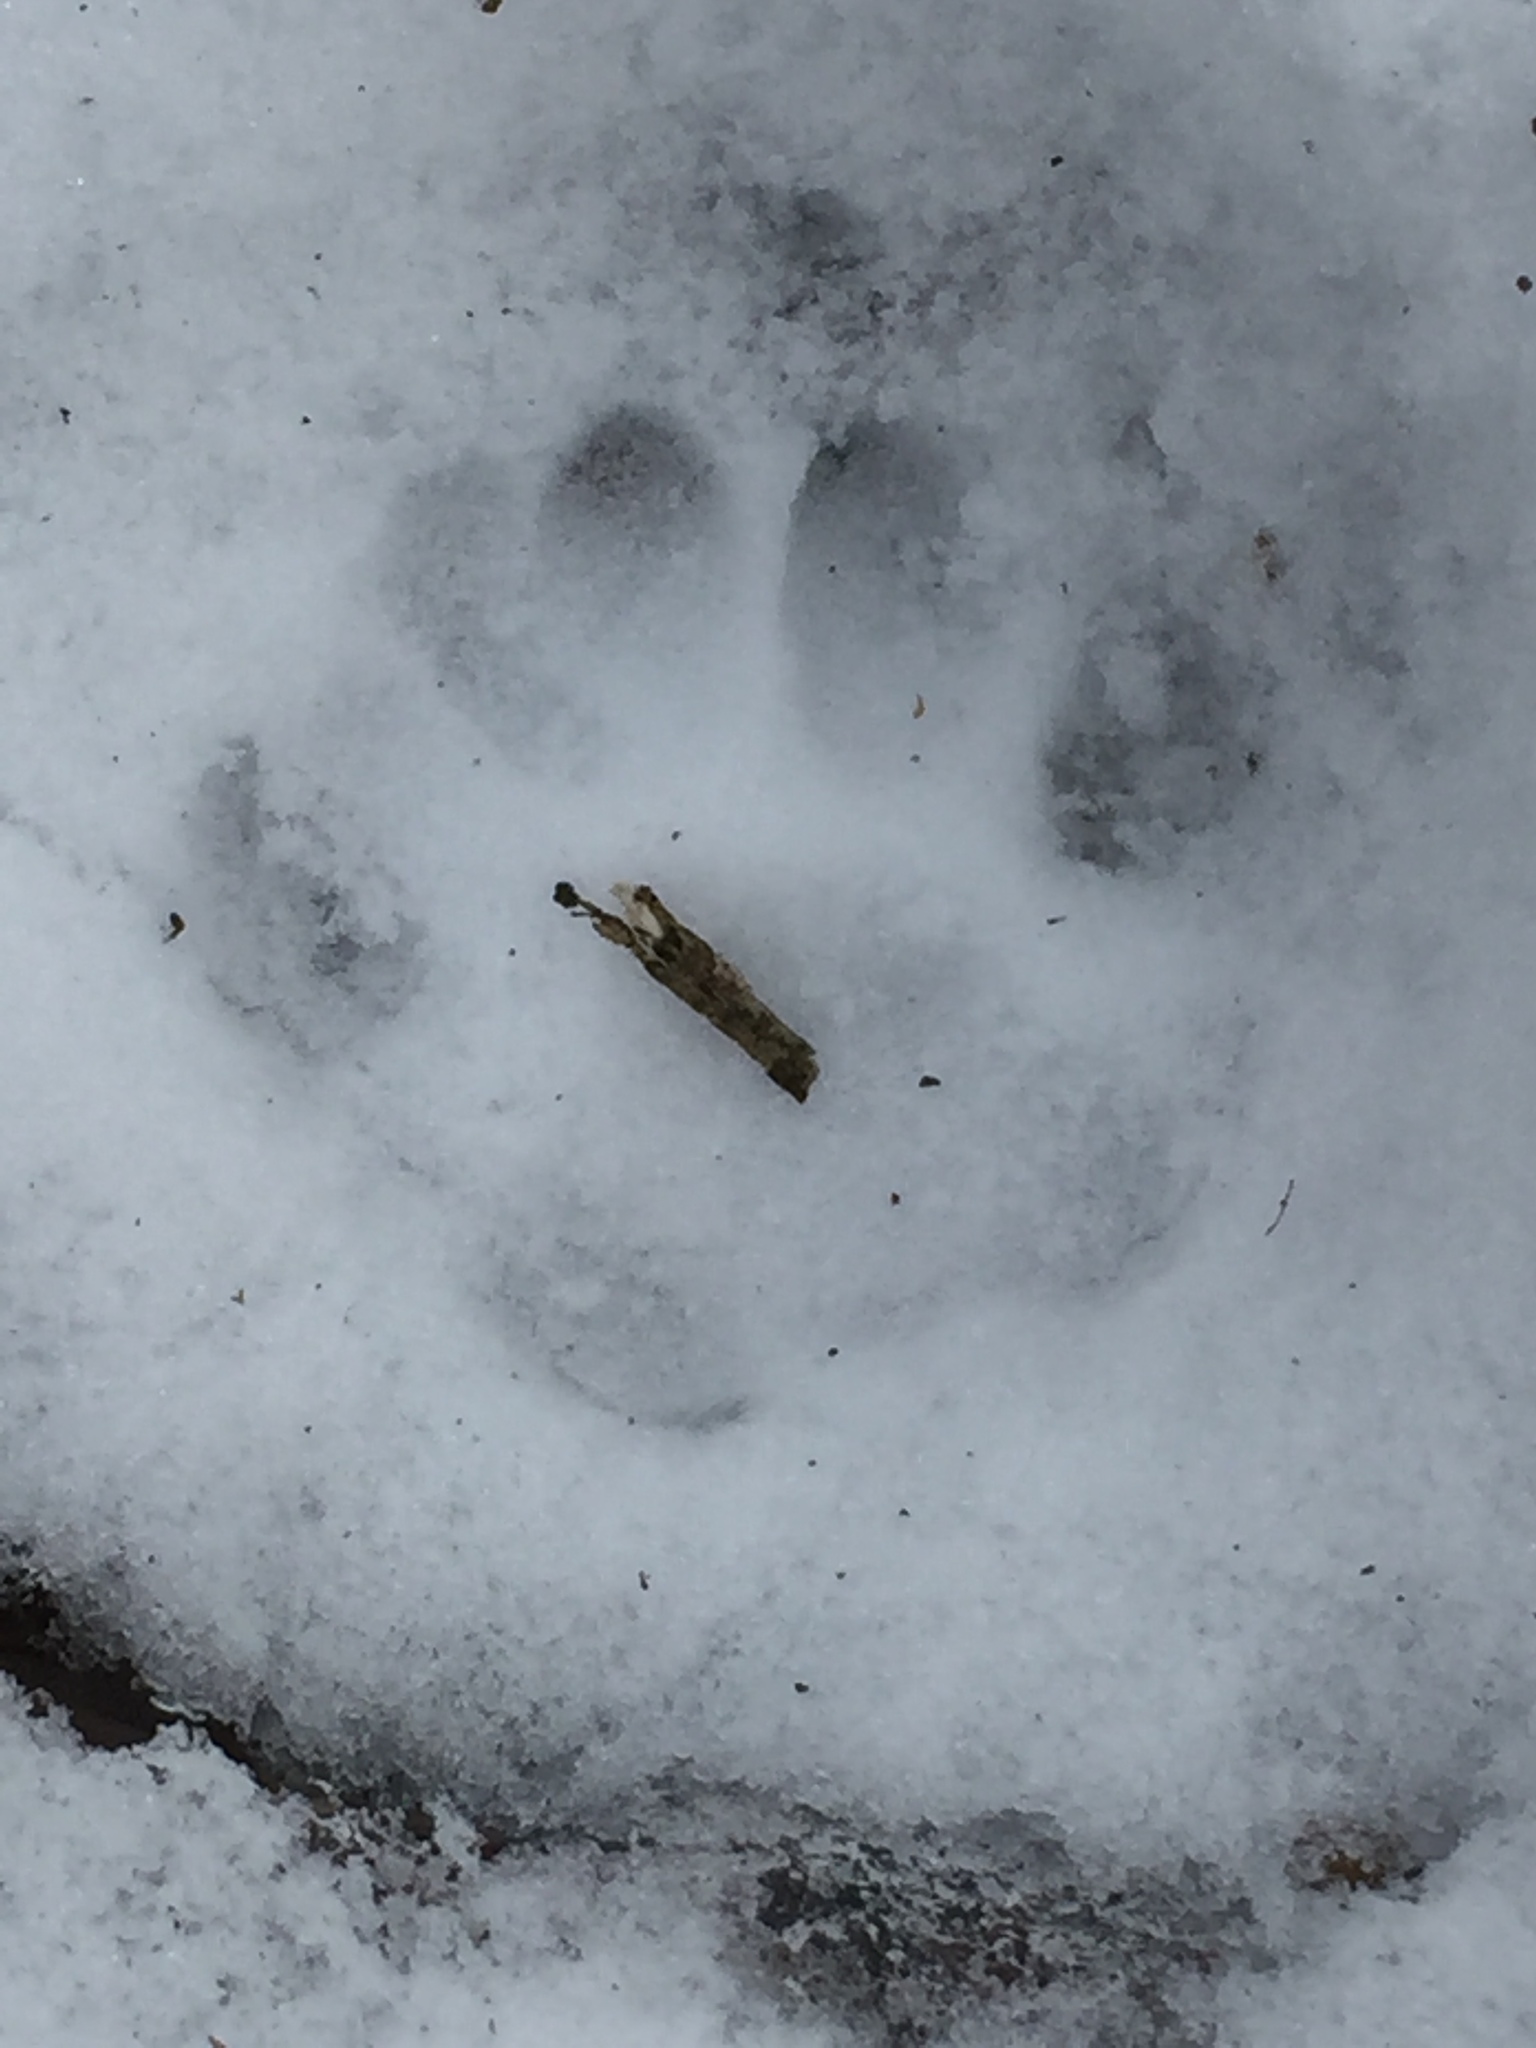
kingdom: Animalia
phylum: Chordata
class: Mammalia
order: Carnivora
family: Felidae
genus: Lynx
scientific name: Lynx rufus
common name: Bobcat
